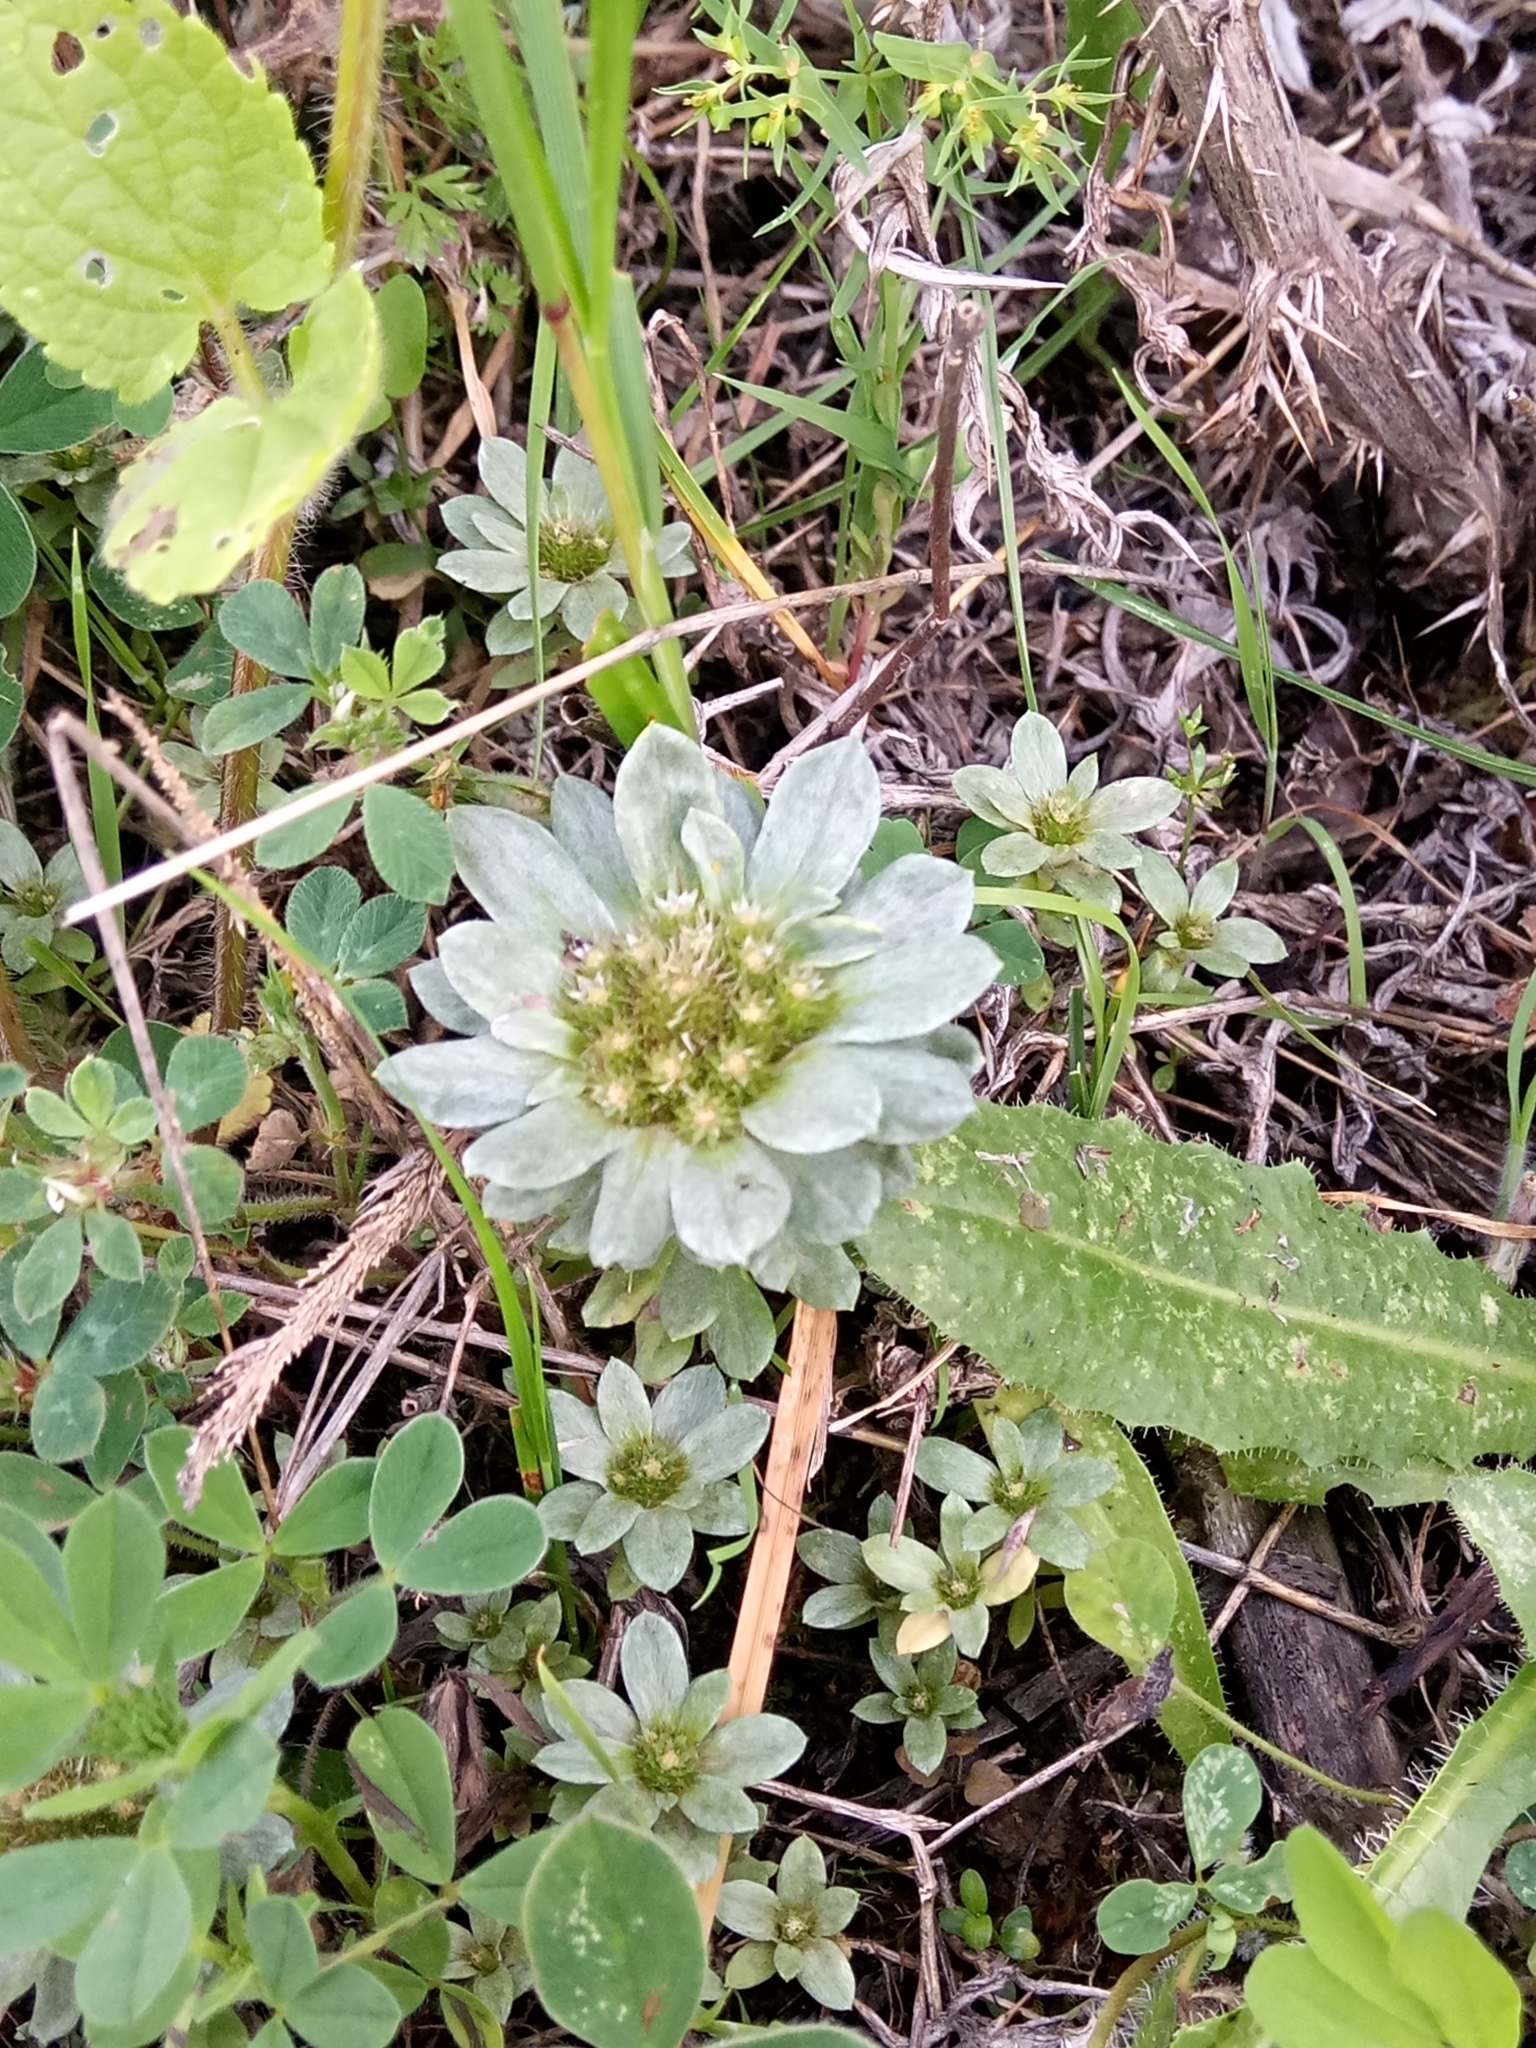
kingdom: Plantae
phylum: Tracheophyta
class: Magnoliopsida
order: Asterales
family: Asteraceae
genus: Filago
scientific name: Filago pygmaea
